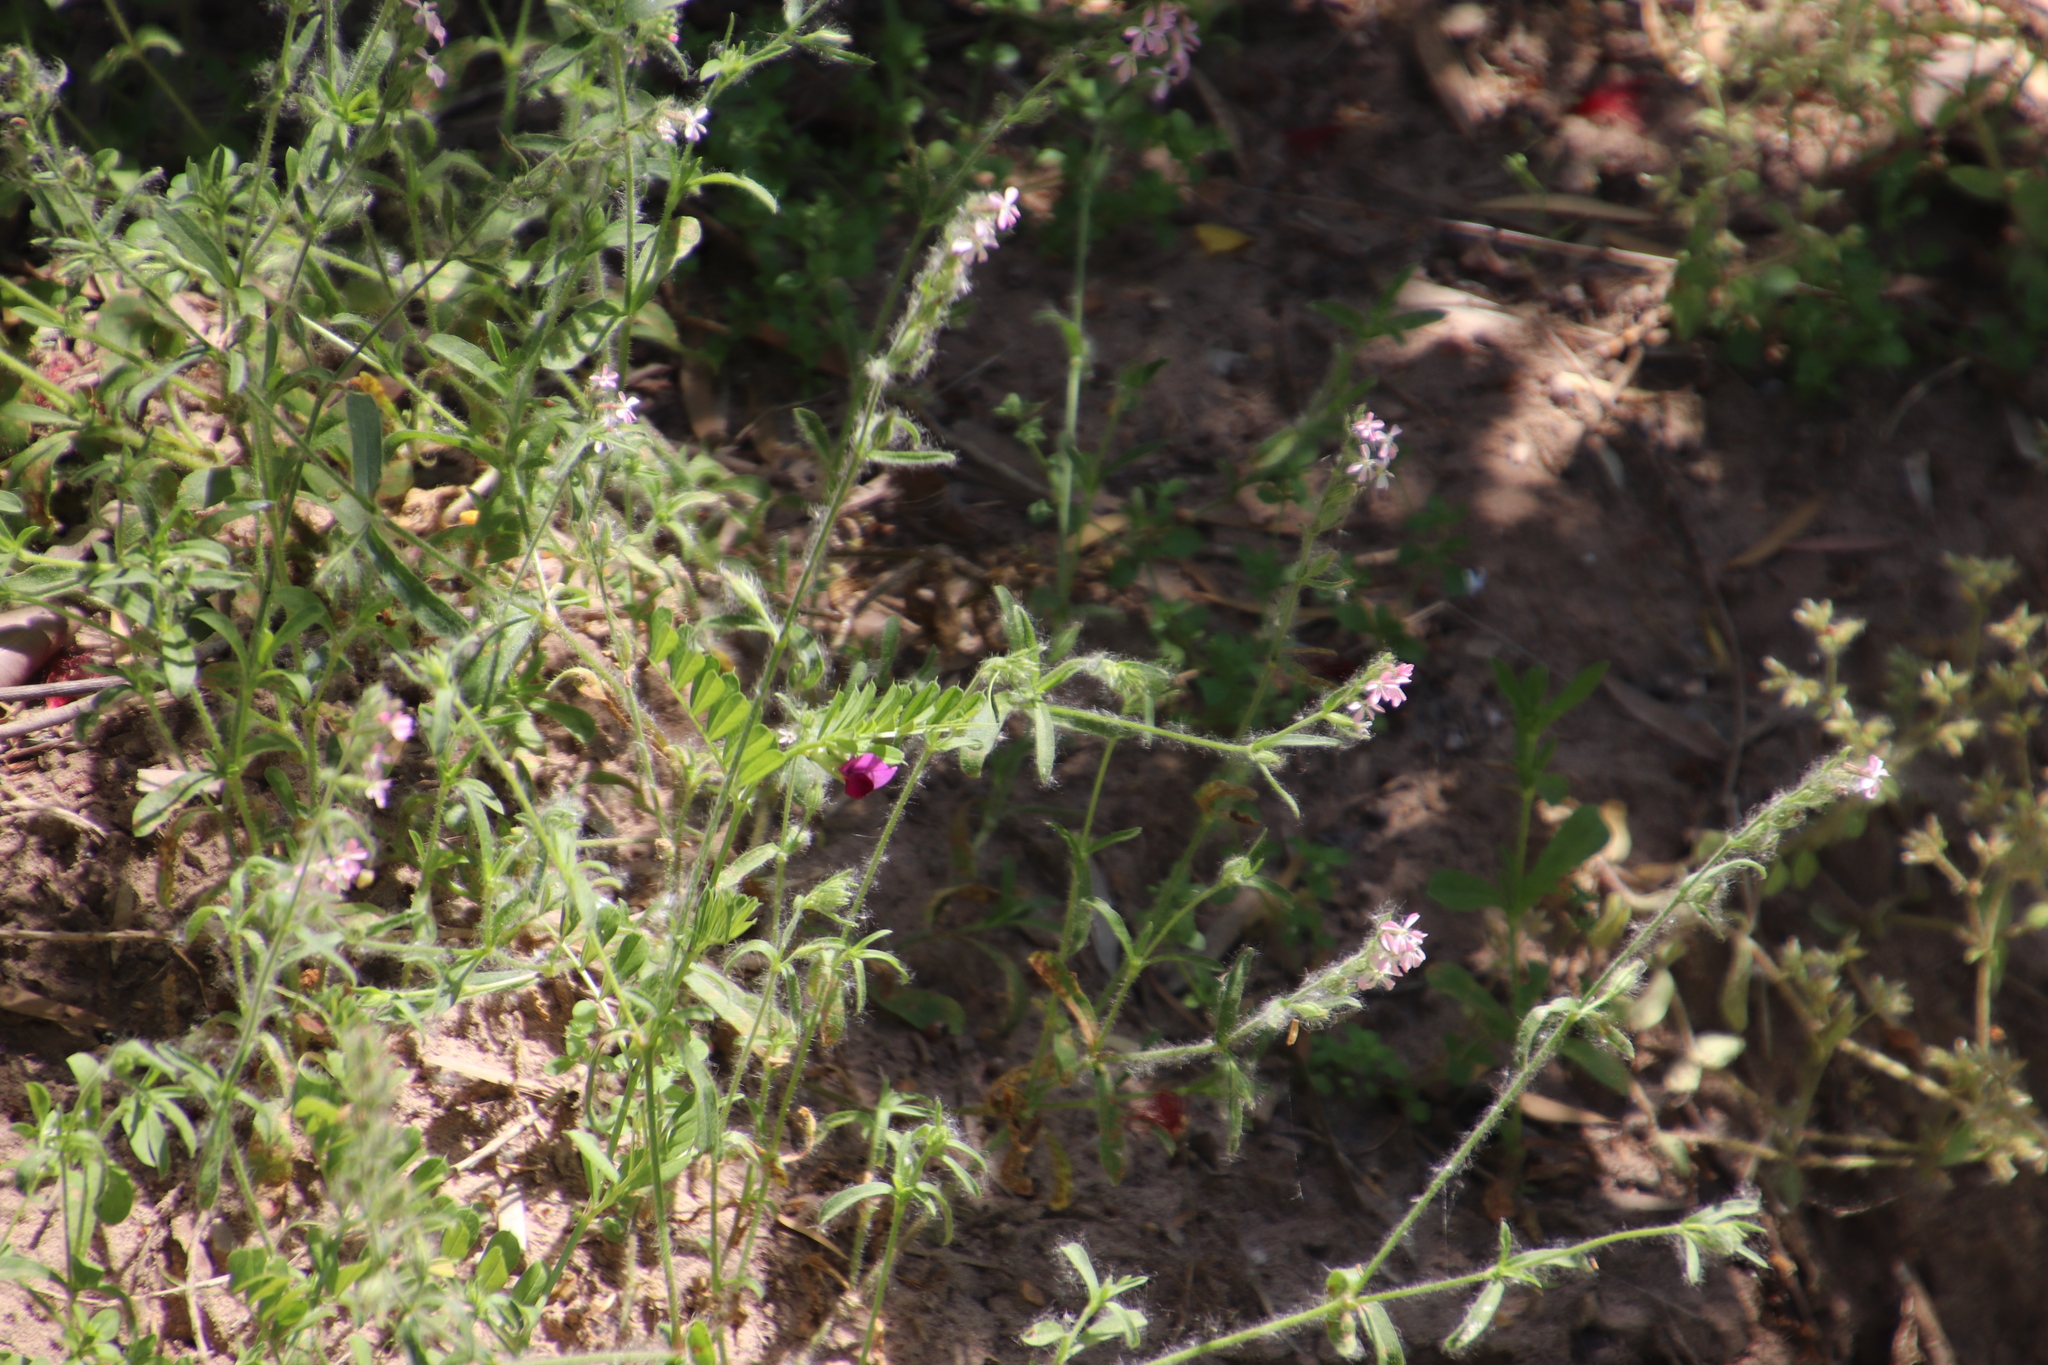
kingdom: Plantae
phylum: Tracheophyta
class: Magnoliopsida
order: Caryophyllales
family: Caryophyllaceae
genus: Silene
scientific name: Silene gallica
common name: Small-flowered catchfly
